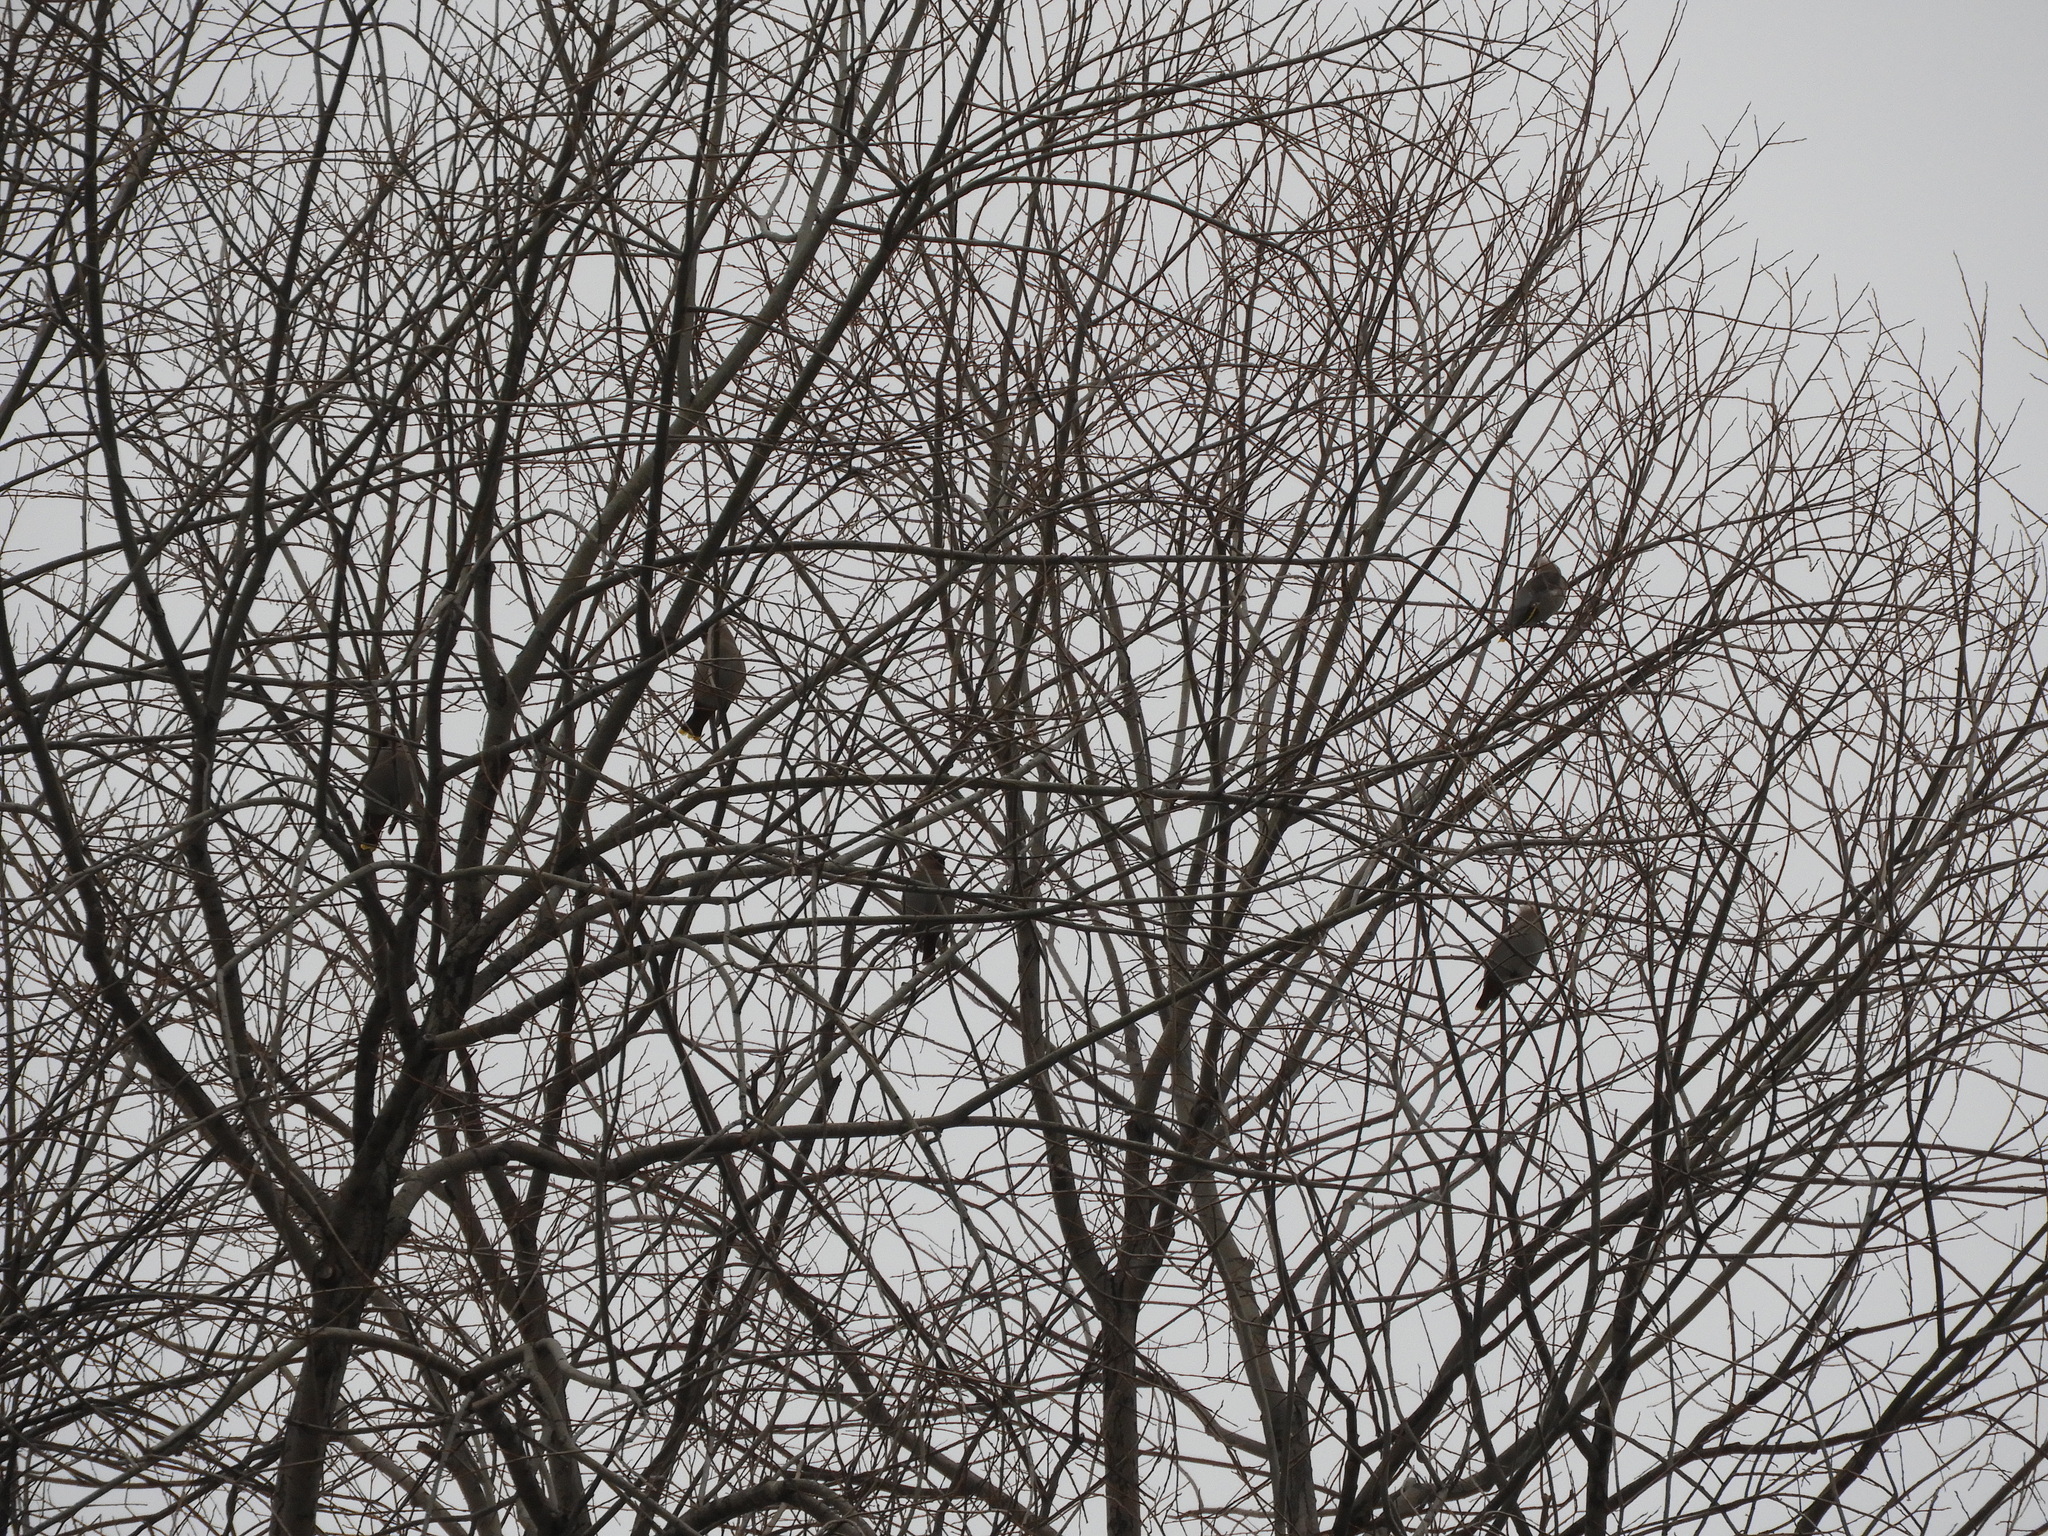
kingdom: Animalia
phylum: Chordata
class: Aves
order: Passeriformes
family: Bombycillidae
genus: Bombycilla
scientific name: Bombycilla garrulus
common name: Bohemian waxwing
